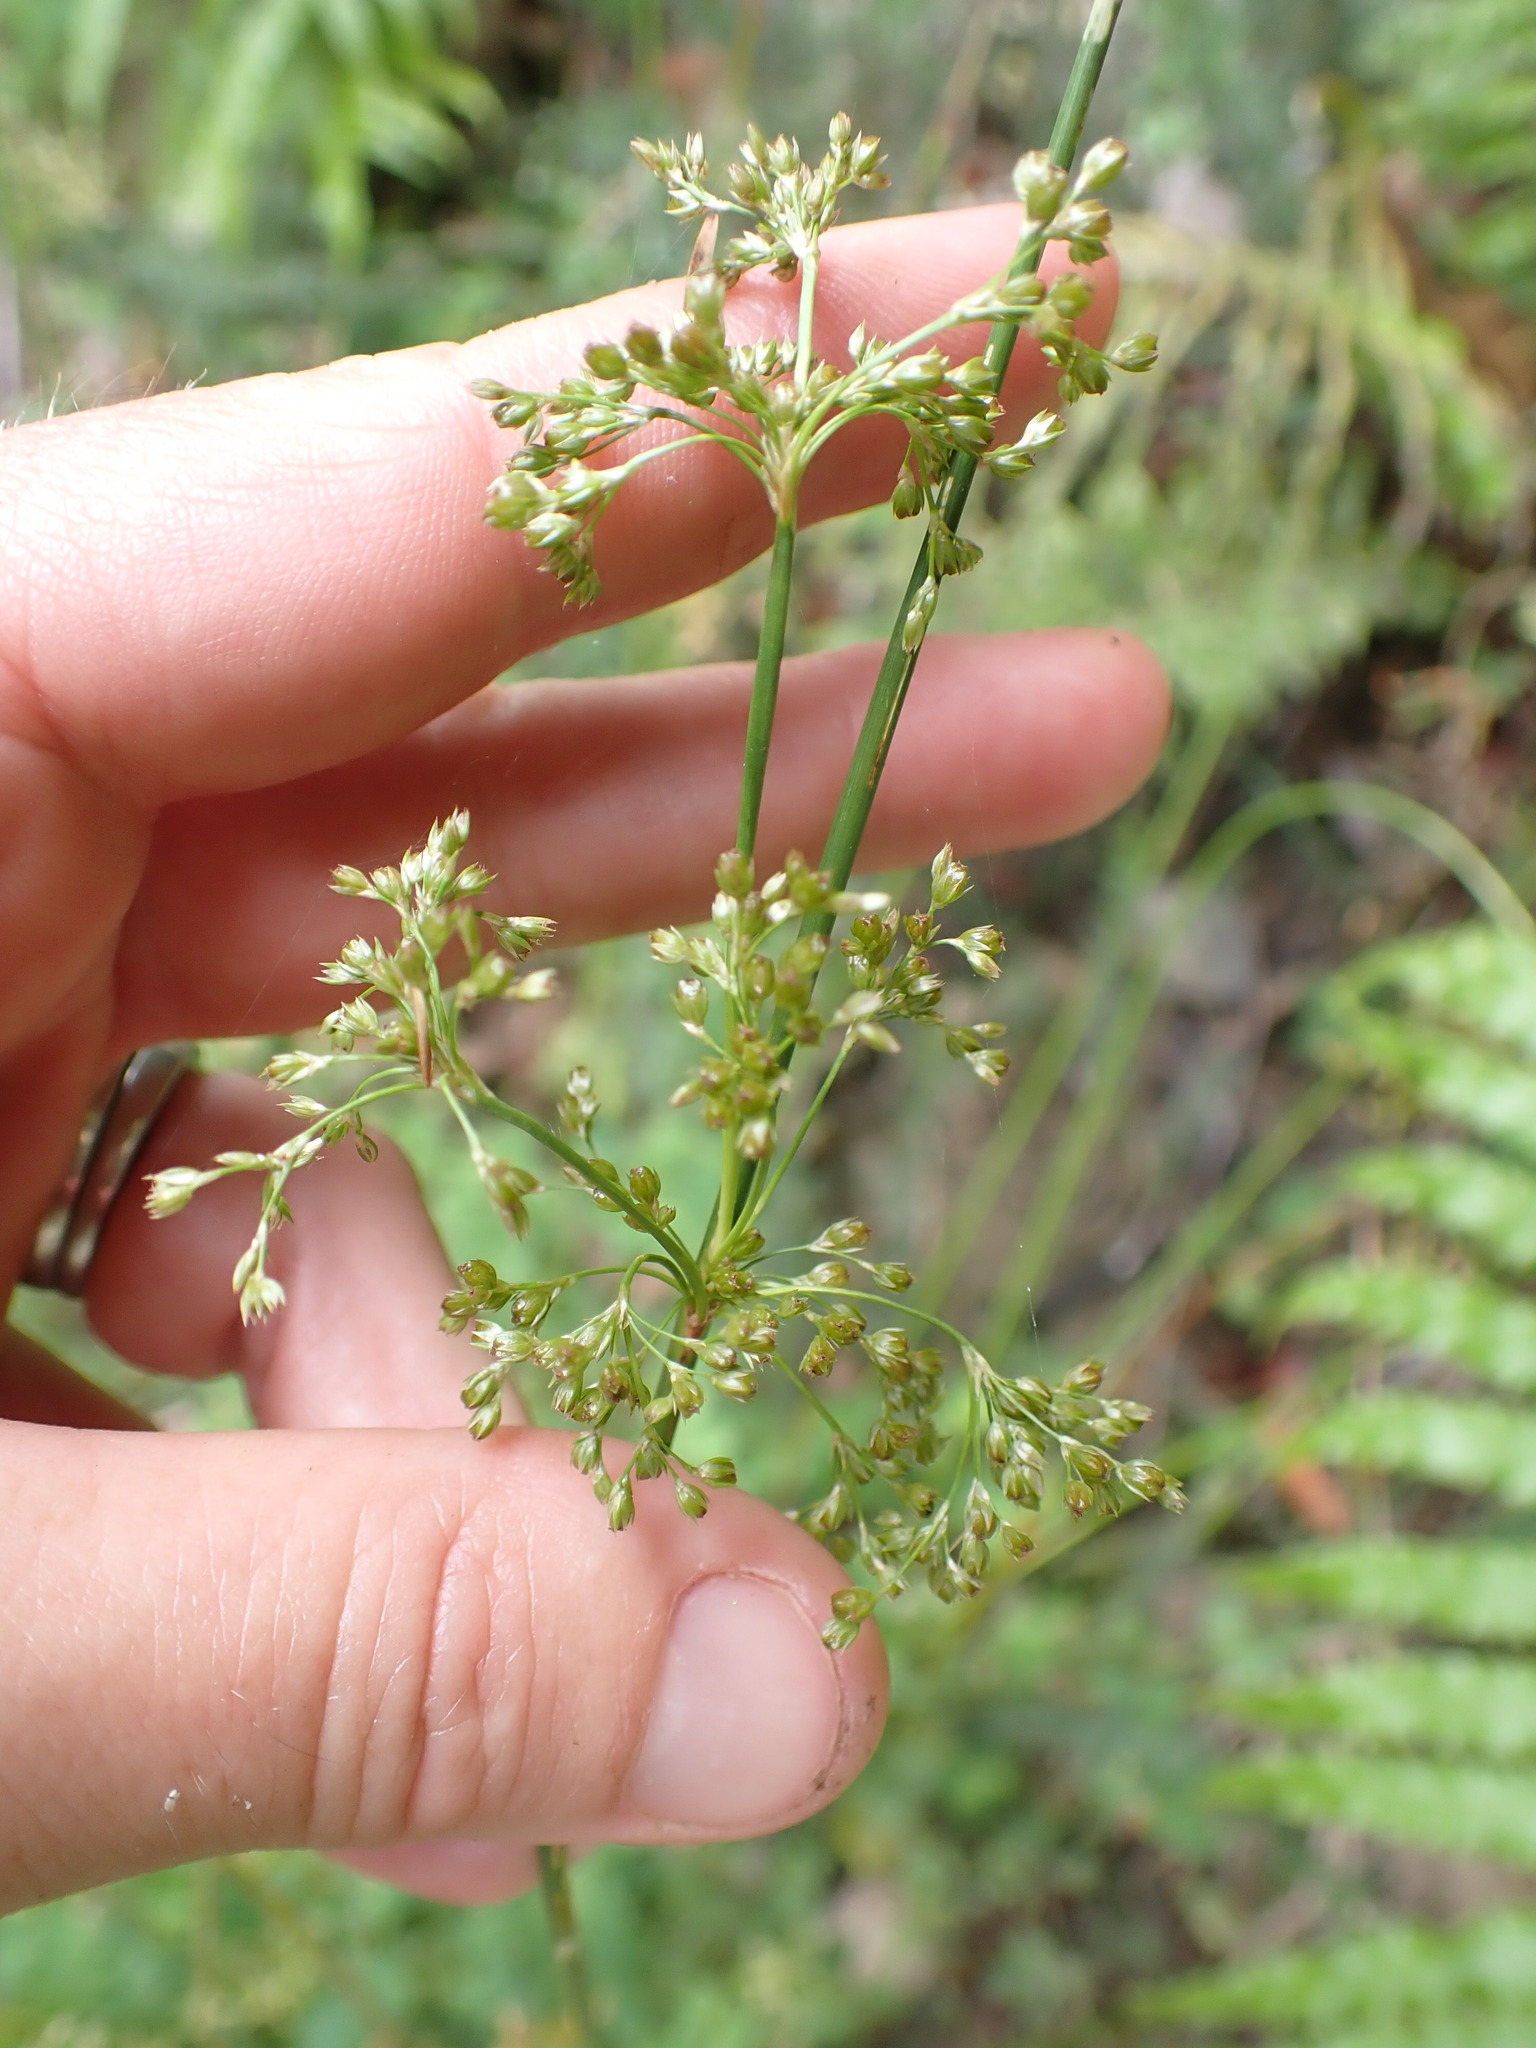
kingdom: Plantae
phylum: Tracheophyta
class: Liliopsida
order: Poales
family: Juncaceae
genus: Juncus
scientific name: Juncus effusus
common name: Soft rush
